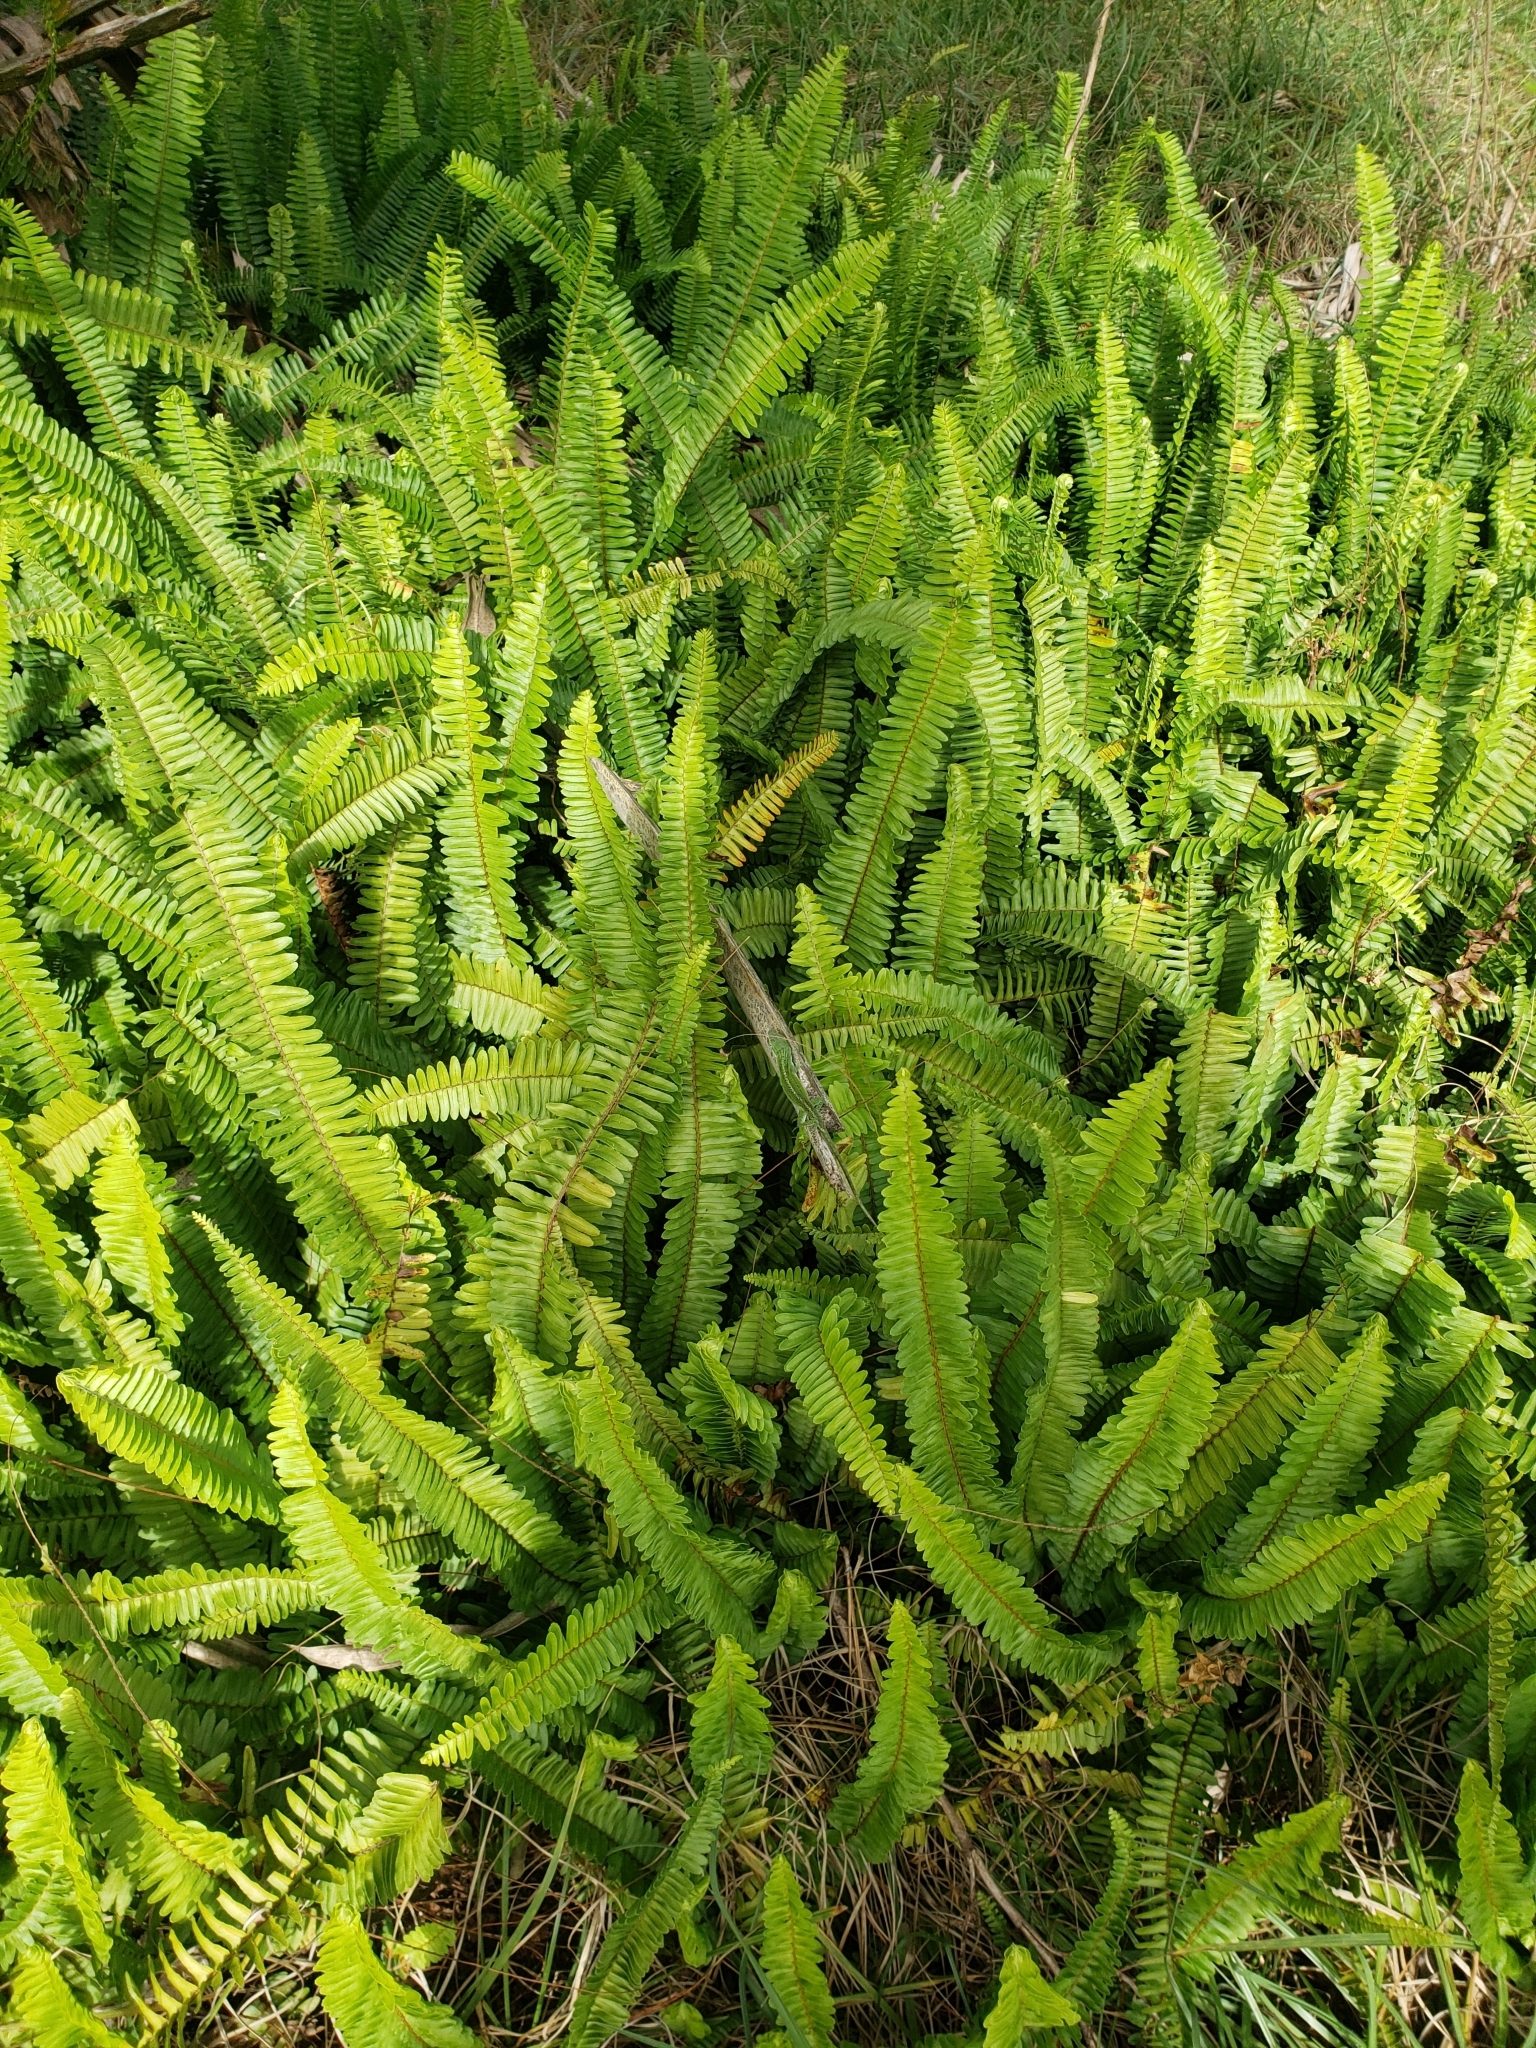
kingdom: Plantae
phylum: Tracheophyta
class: Polypodiopsida
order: Polypodiales
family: Nephrolepidaceae
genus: Nephrolepis
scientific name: Nephrolepis cordifolia
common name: Narrow swordfern
